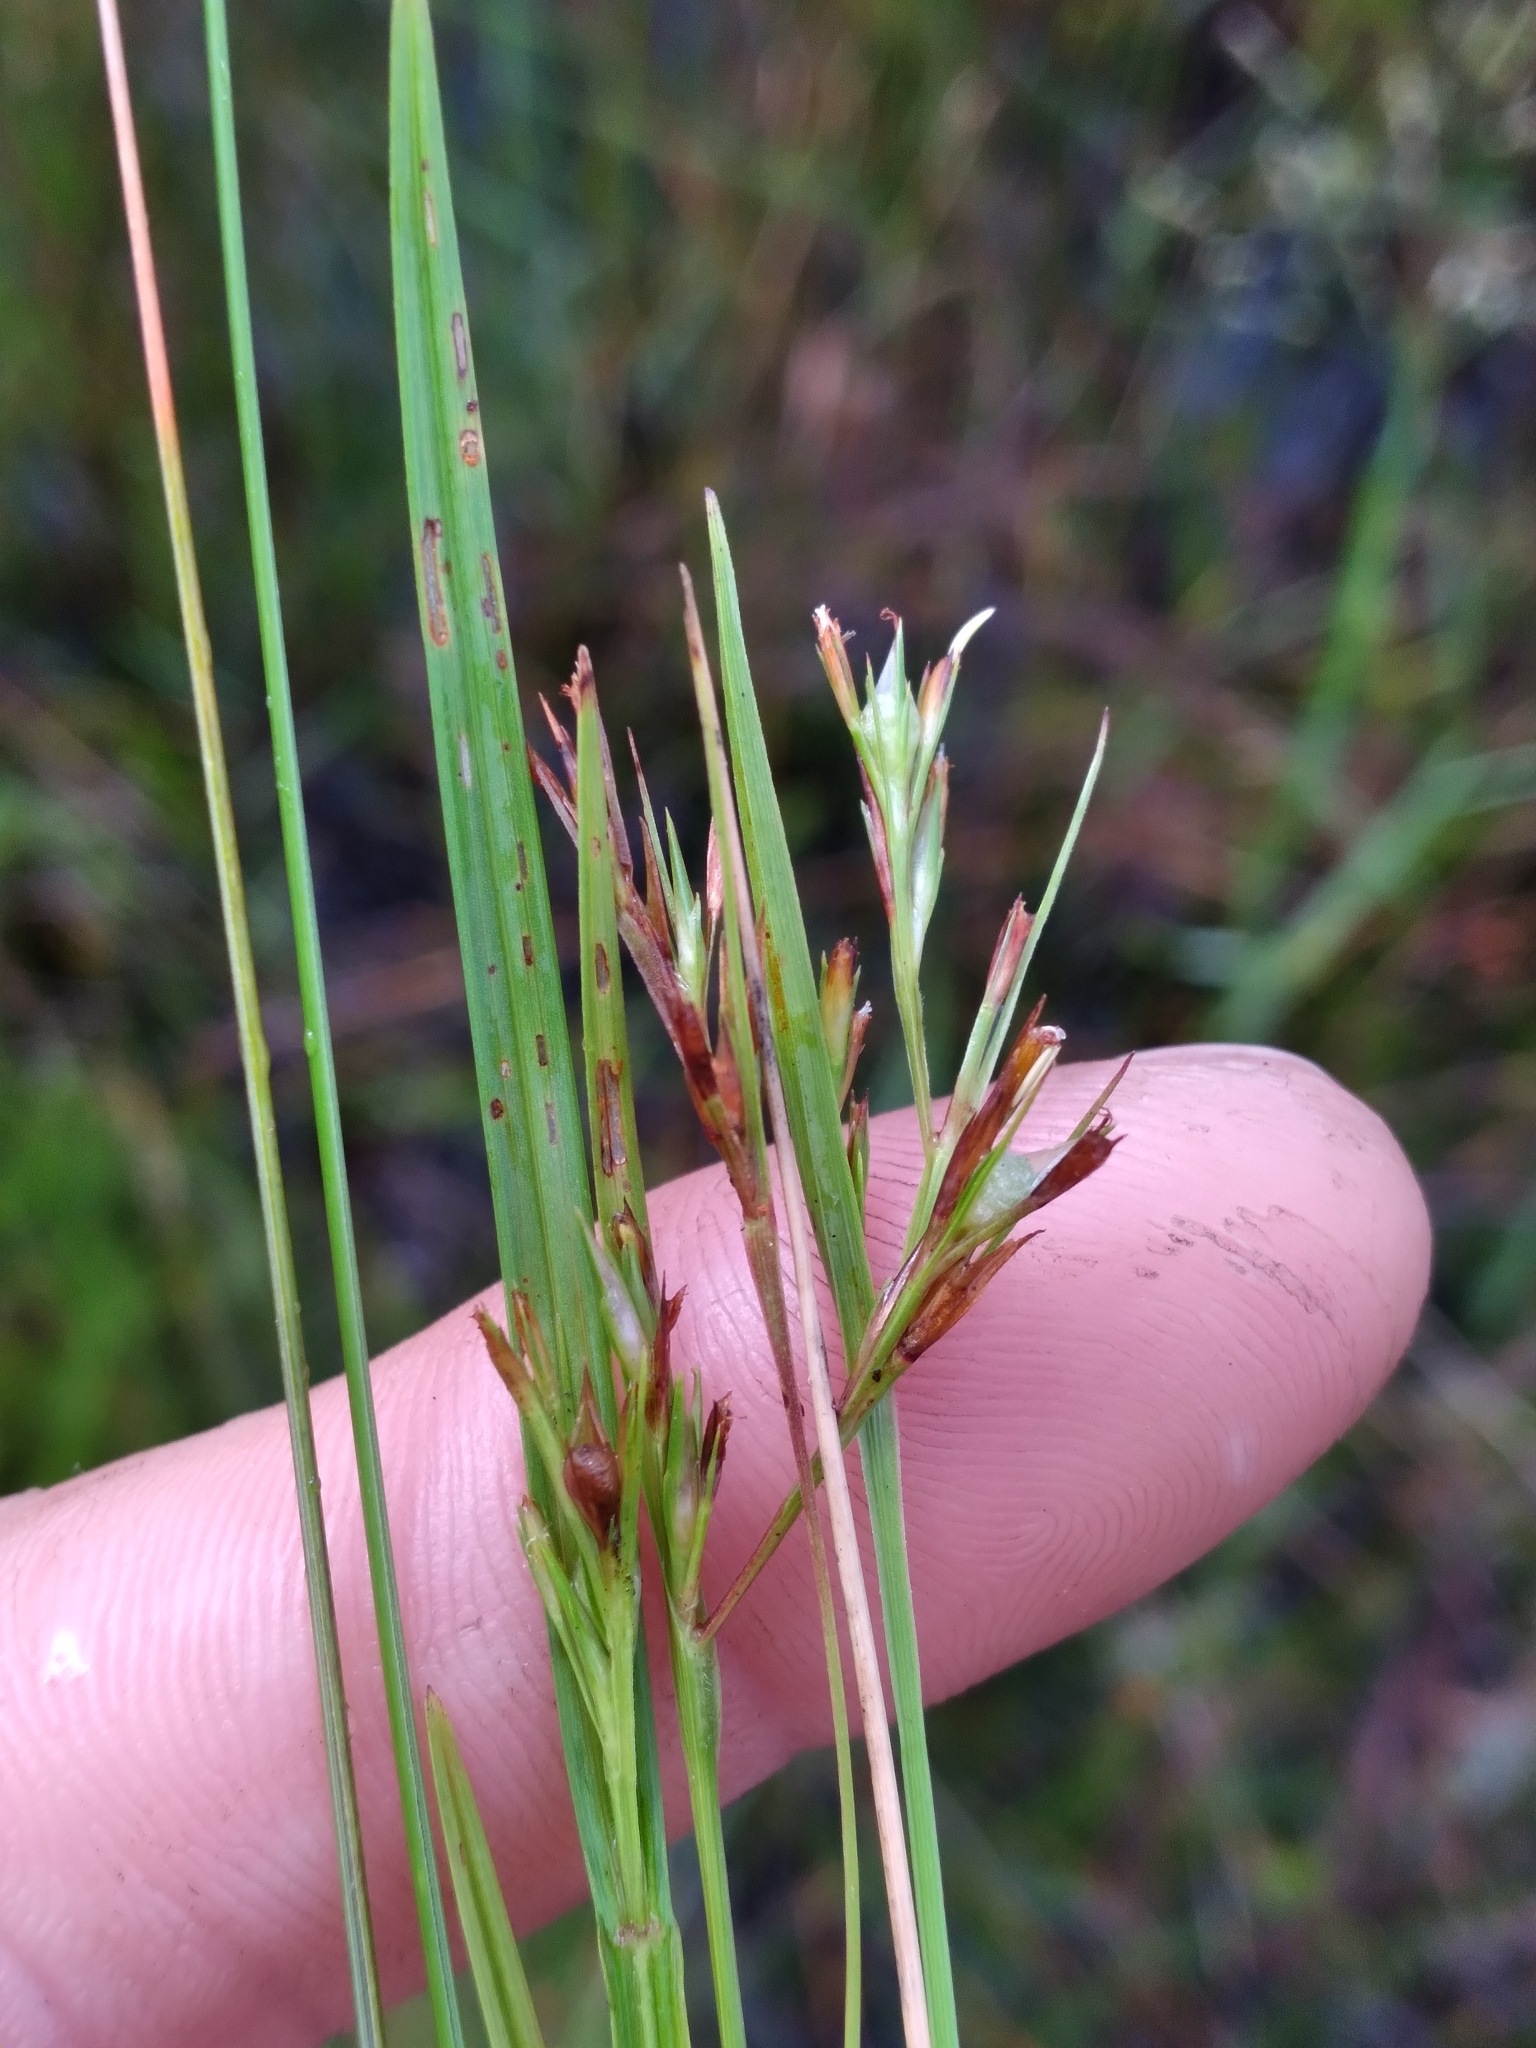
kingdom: Plantae
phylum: Tracheophyta
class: Liliopsida
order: Poales
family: Cyperaceae
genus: Scleria
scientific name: Scleria muehlenbergii
